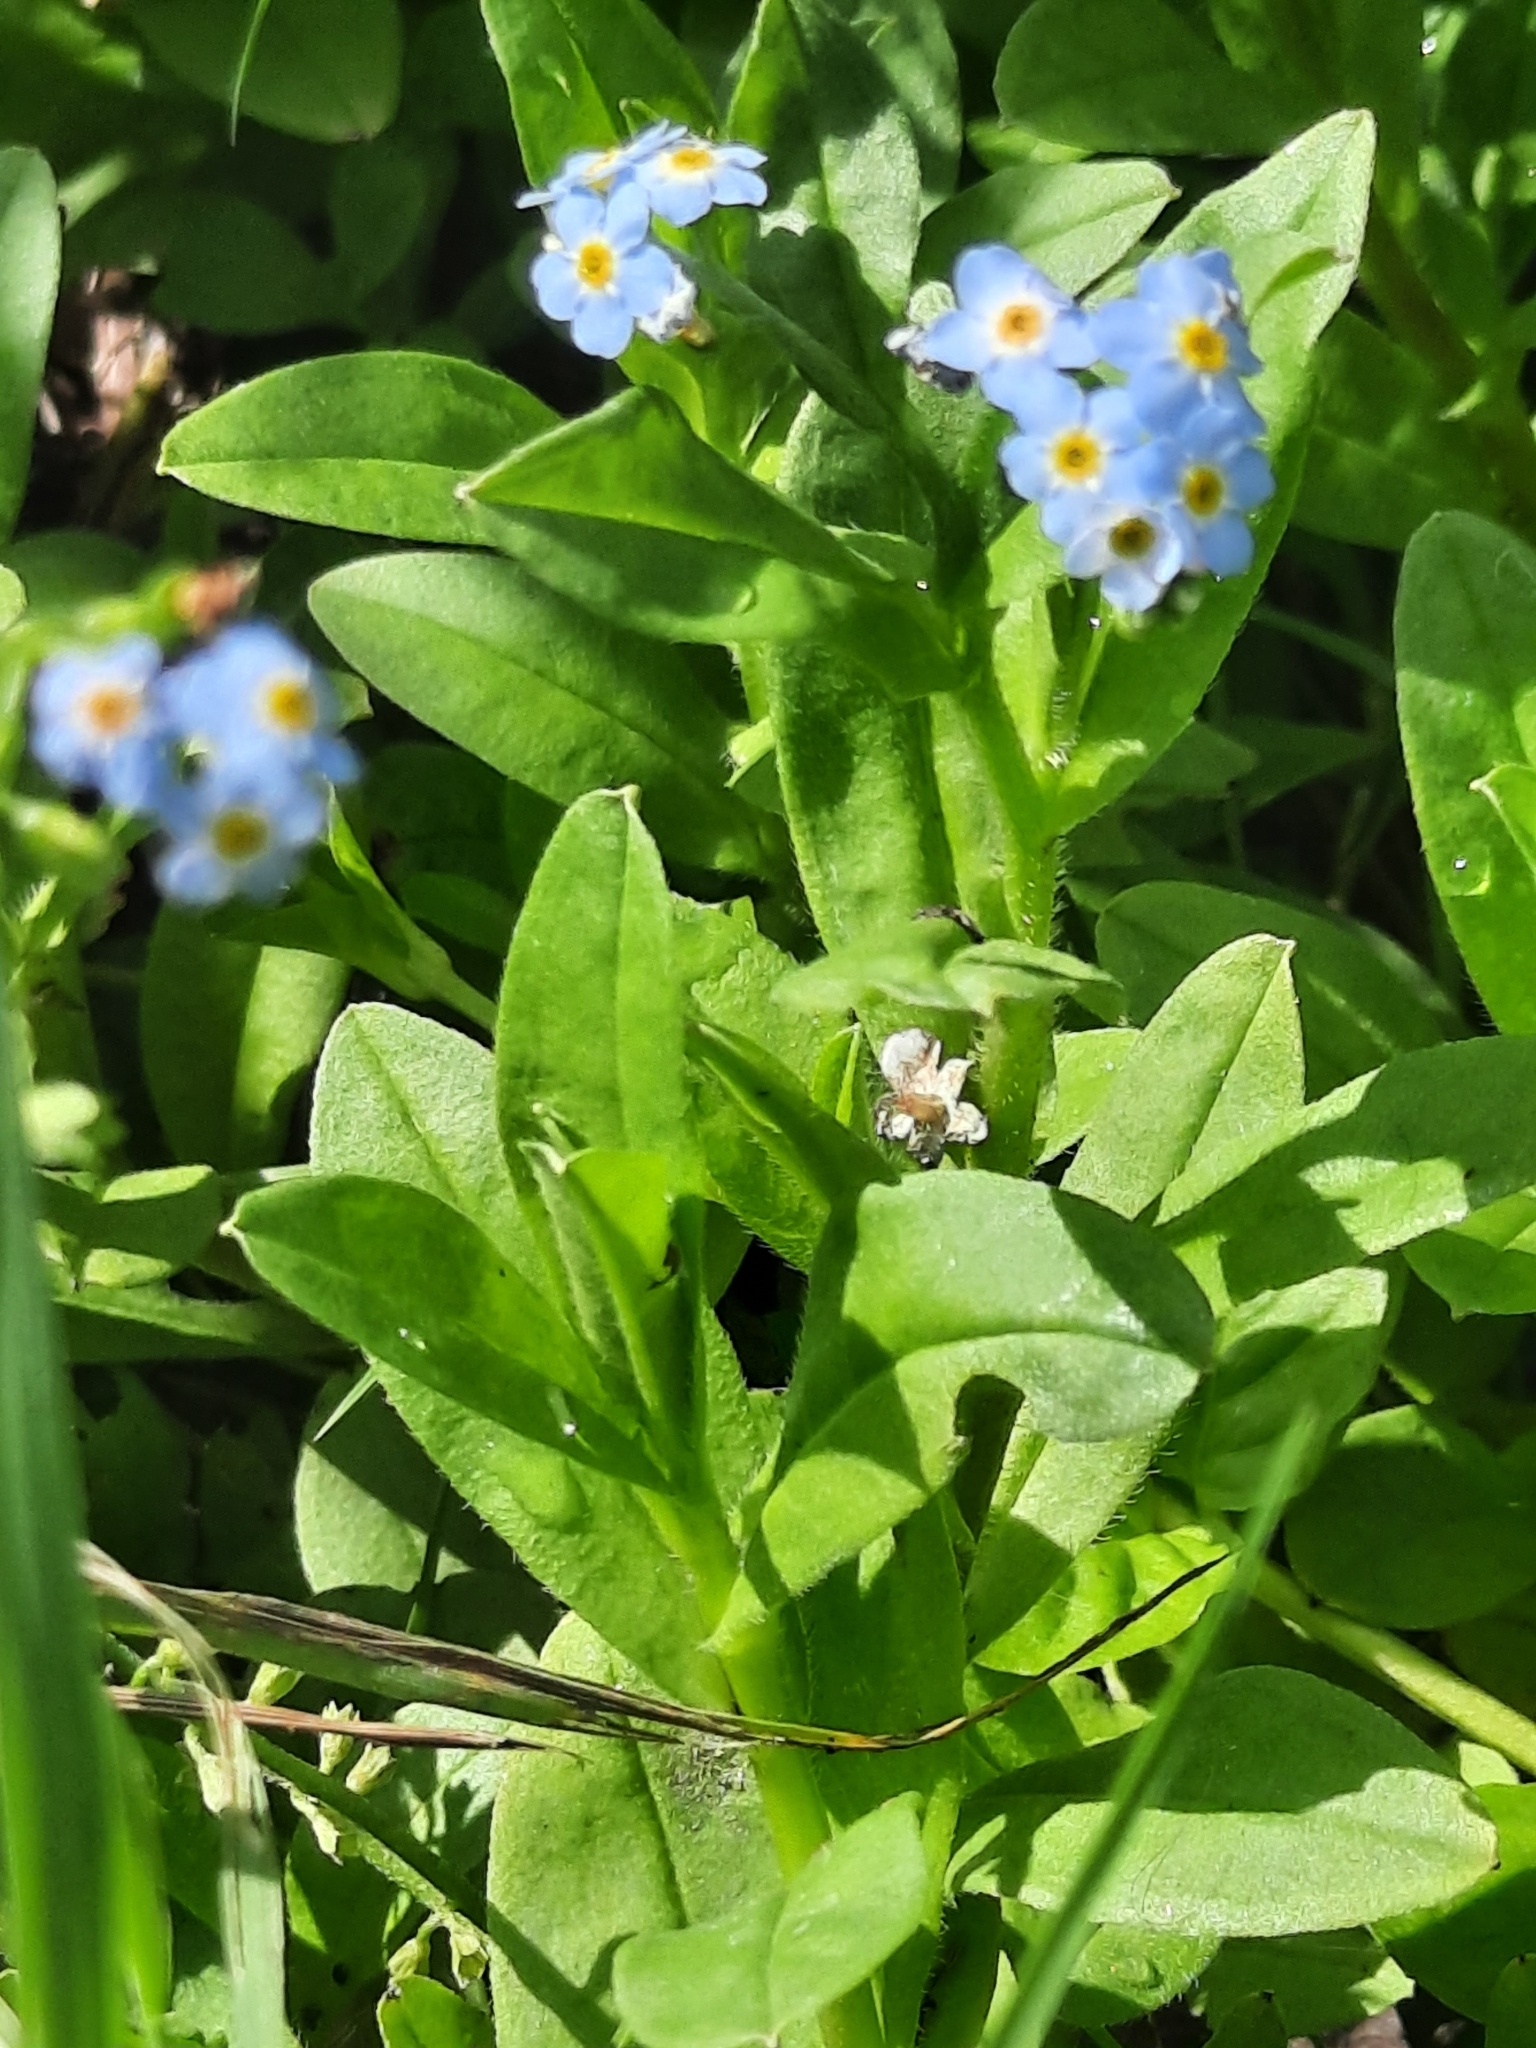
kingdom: Plantae
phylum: Tracheophyta
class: Magnoliopsida
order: Boraginales
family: Boraginaceae
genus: Myosotis
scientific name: Myosotis scorpioides
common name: Water forget-me-not
